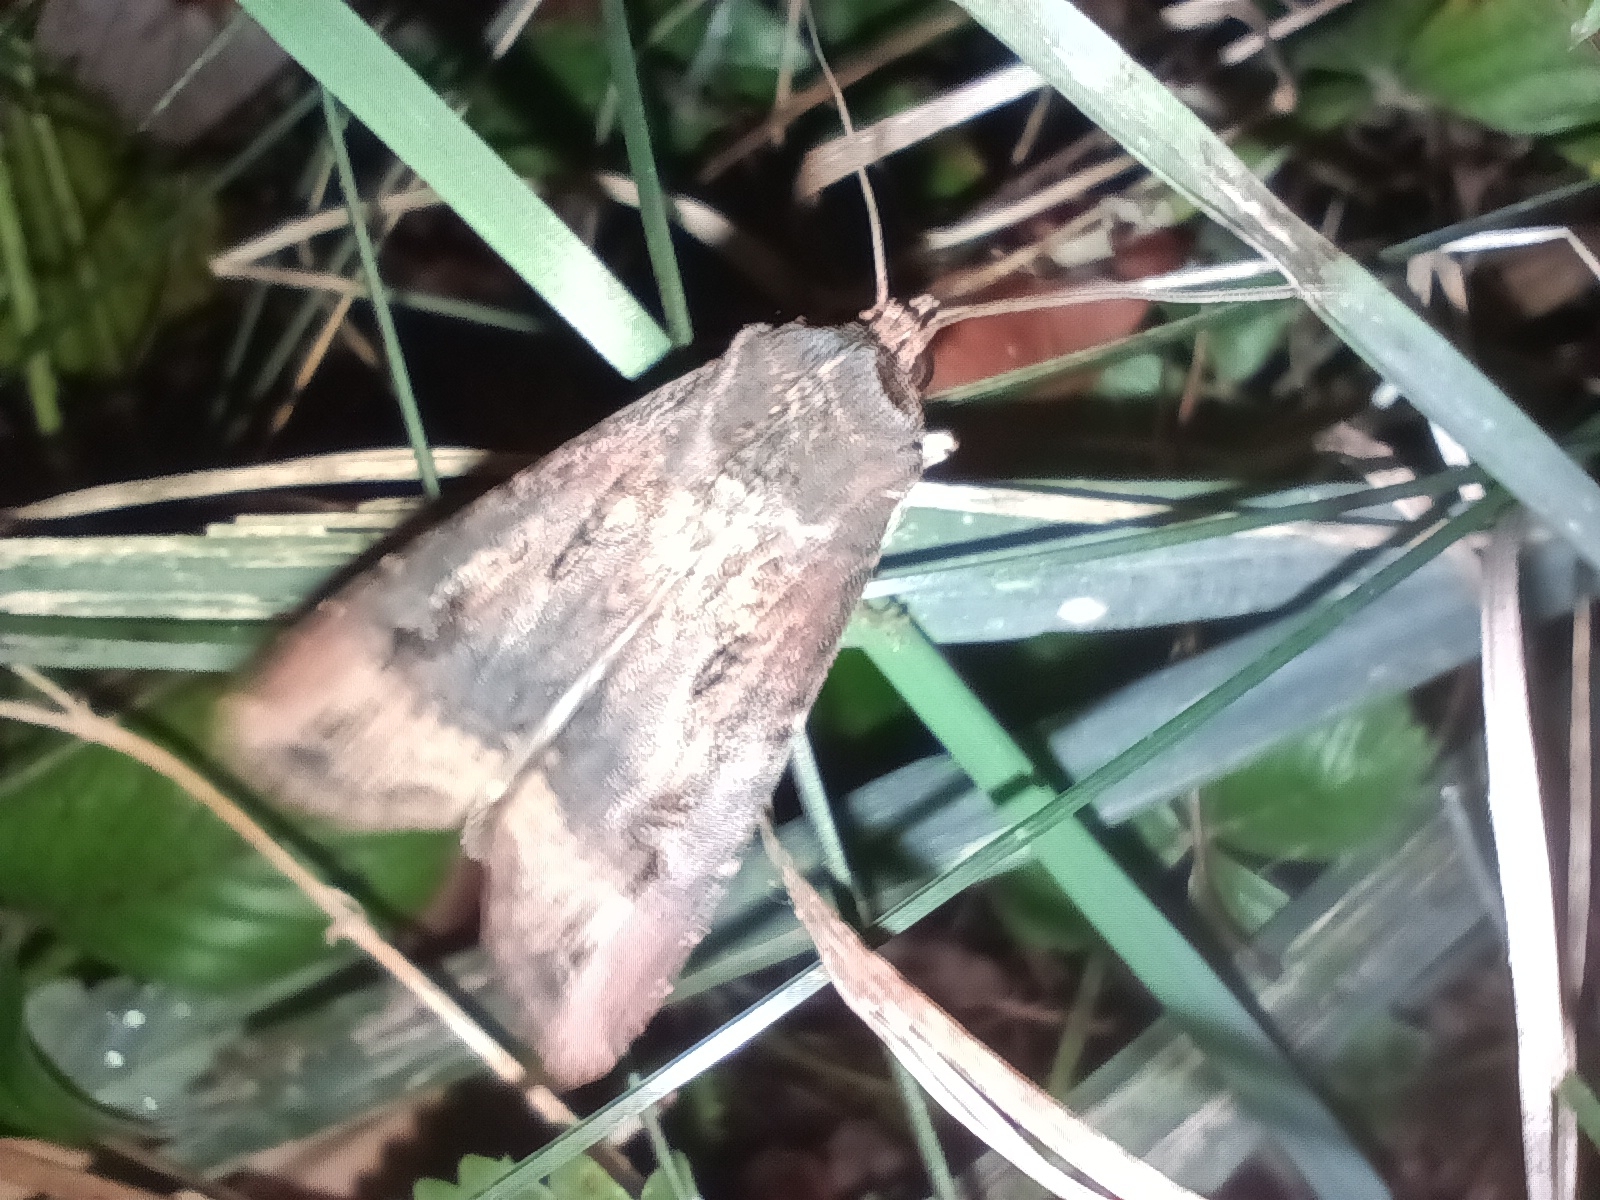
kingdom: Animalia
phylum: Arthropoda
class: Insecta
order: Lepidoptera
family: Noctuidae
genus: Agrotis
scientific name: Agrotis ipsilon
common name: Dark sword-grass
